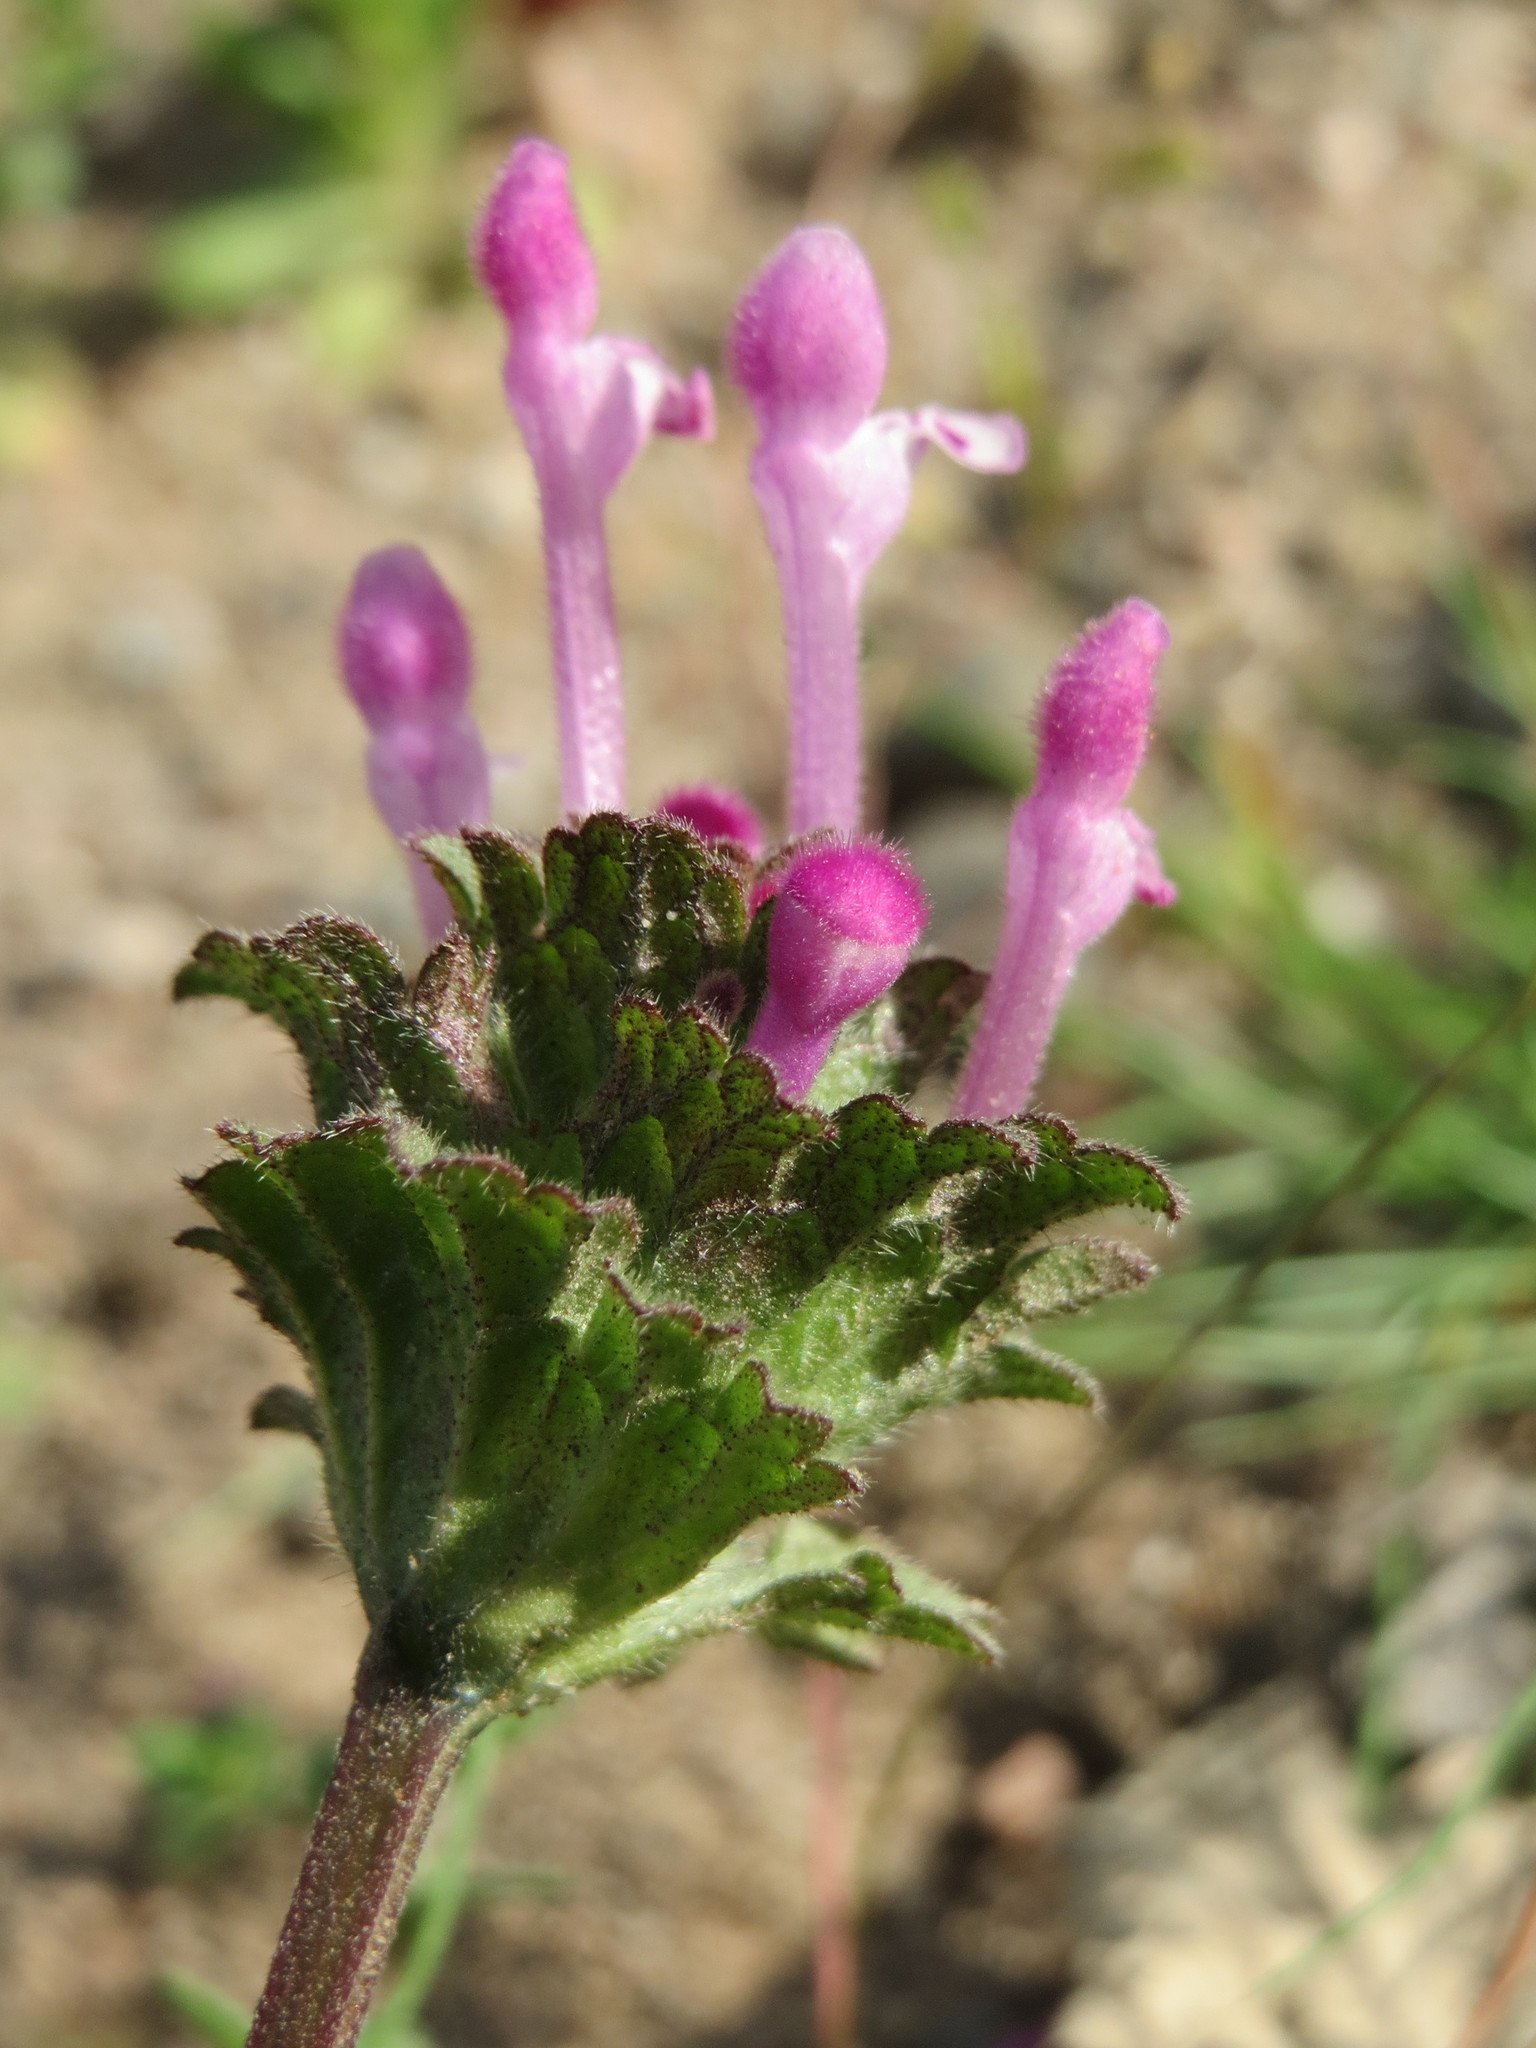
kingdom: Plantae
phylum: Tracheophyta
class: Magnoliopsida
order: Lamiales
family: Lamiaceae
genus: Lamium
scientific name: Lamium amplexicaule
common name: Henbit dead-nettle
